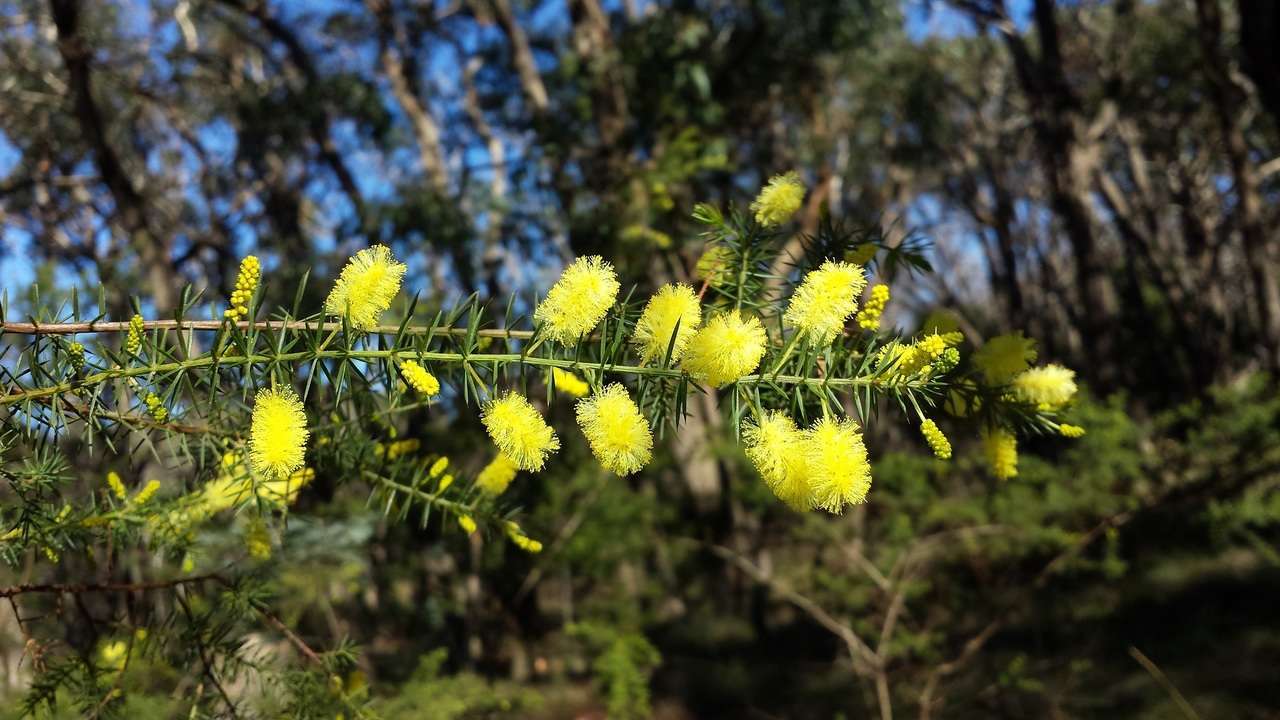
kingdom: Plantae
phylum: Tracheophyta
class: Magnoliopsida
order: Fabales
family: Fabaceae
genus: Acacia
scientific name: Acacia verticillata
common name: Prickly moses
